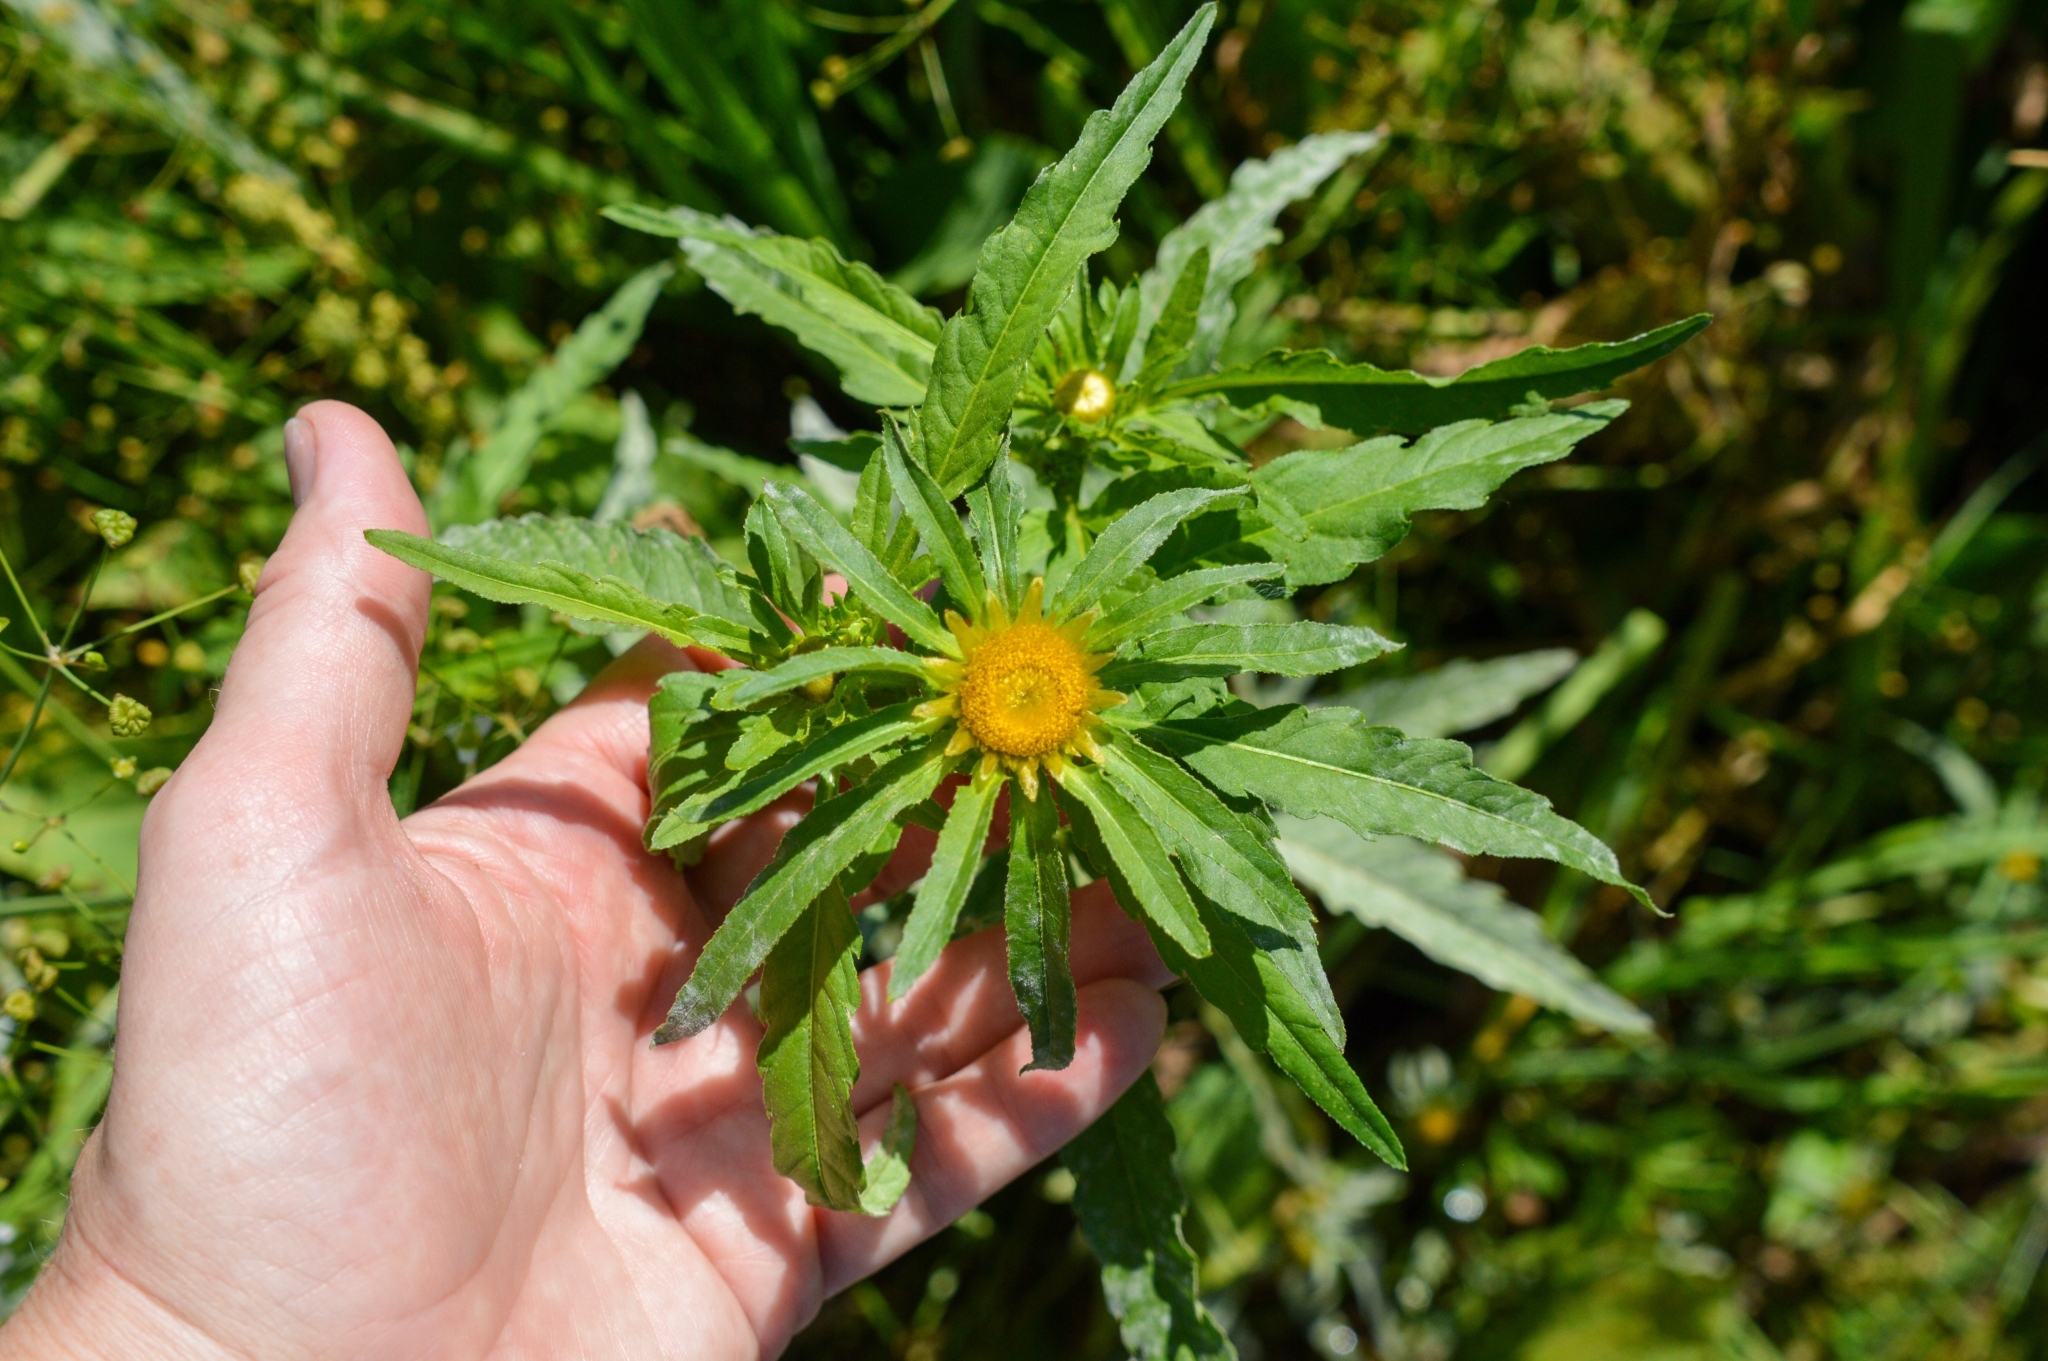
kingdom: Plantae
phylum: Tracheophyta
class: Magnoliopsida
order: Asterales
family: Asteraceae
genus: Bidens
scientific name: Bidens radiata
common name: Radiating bur-marigold
